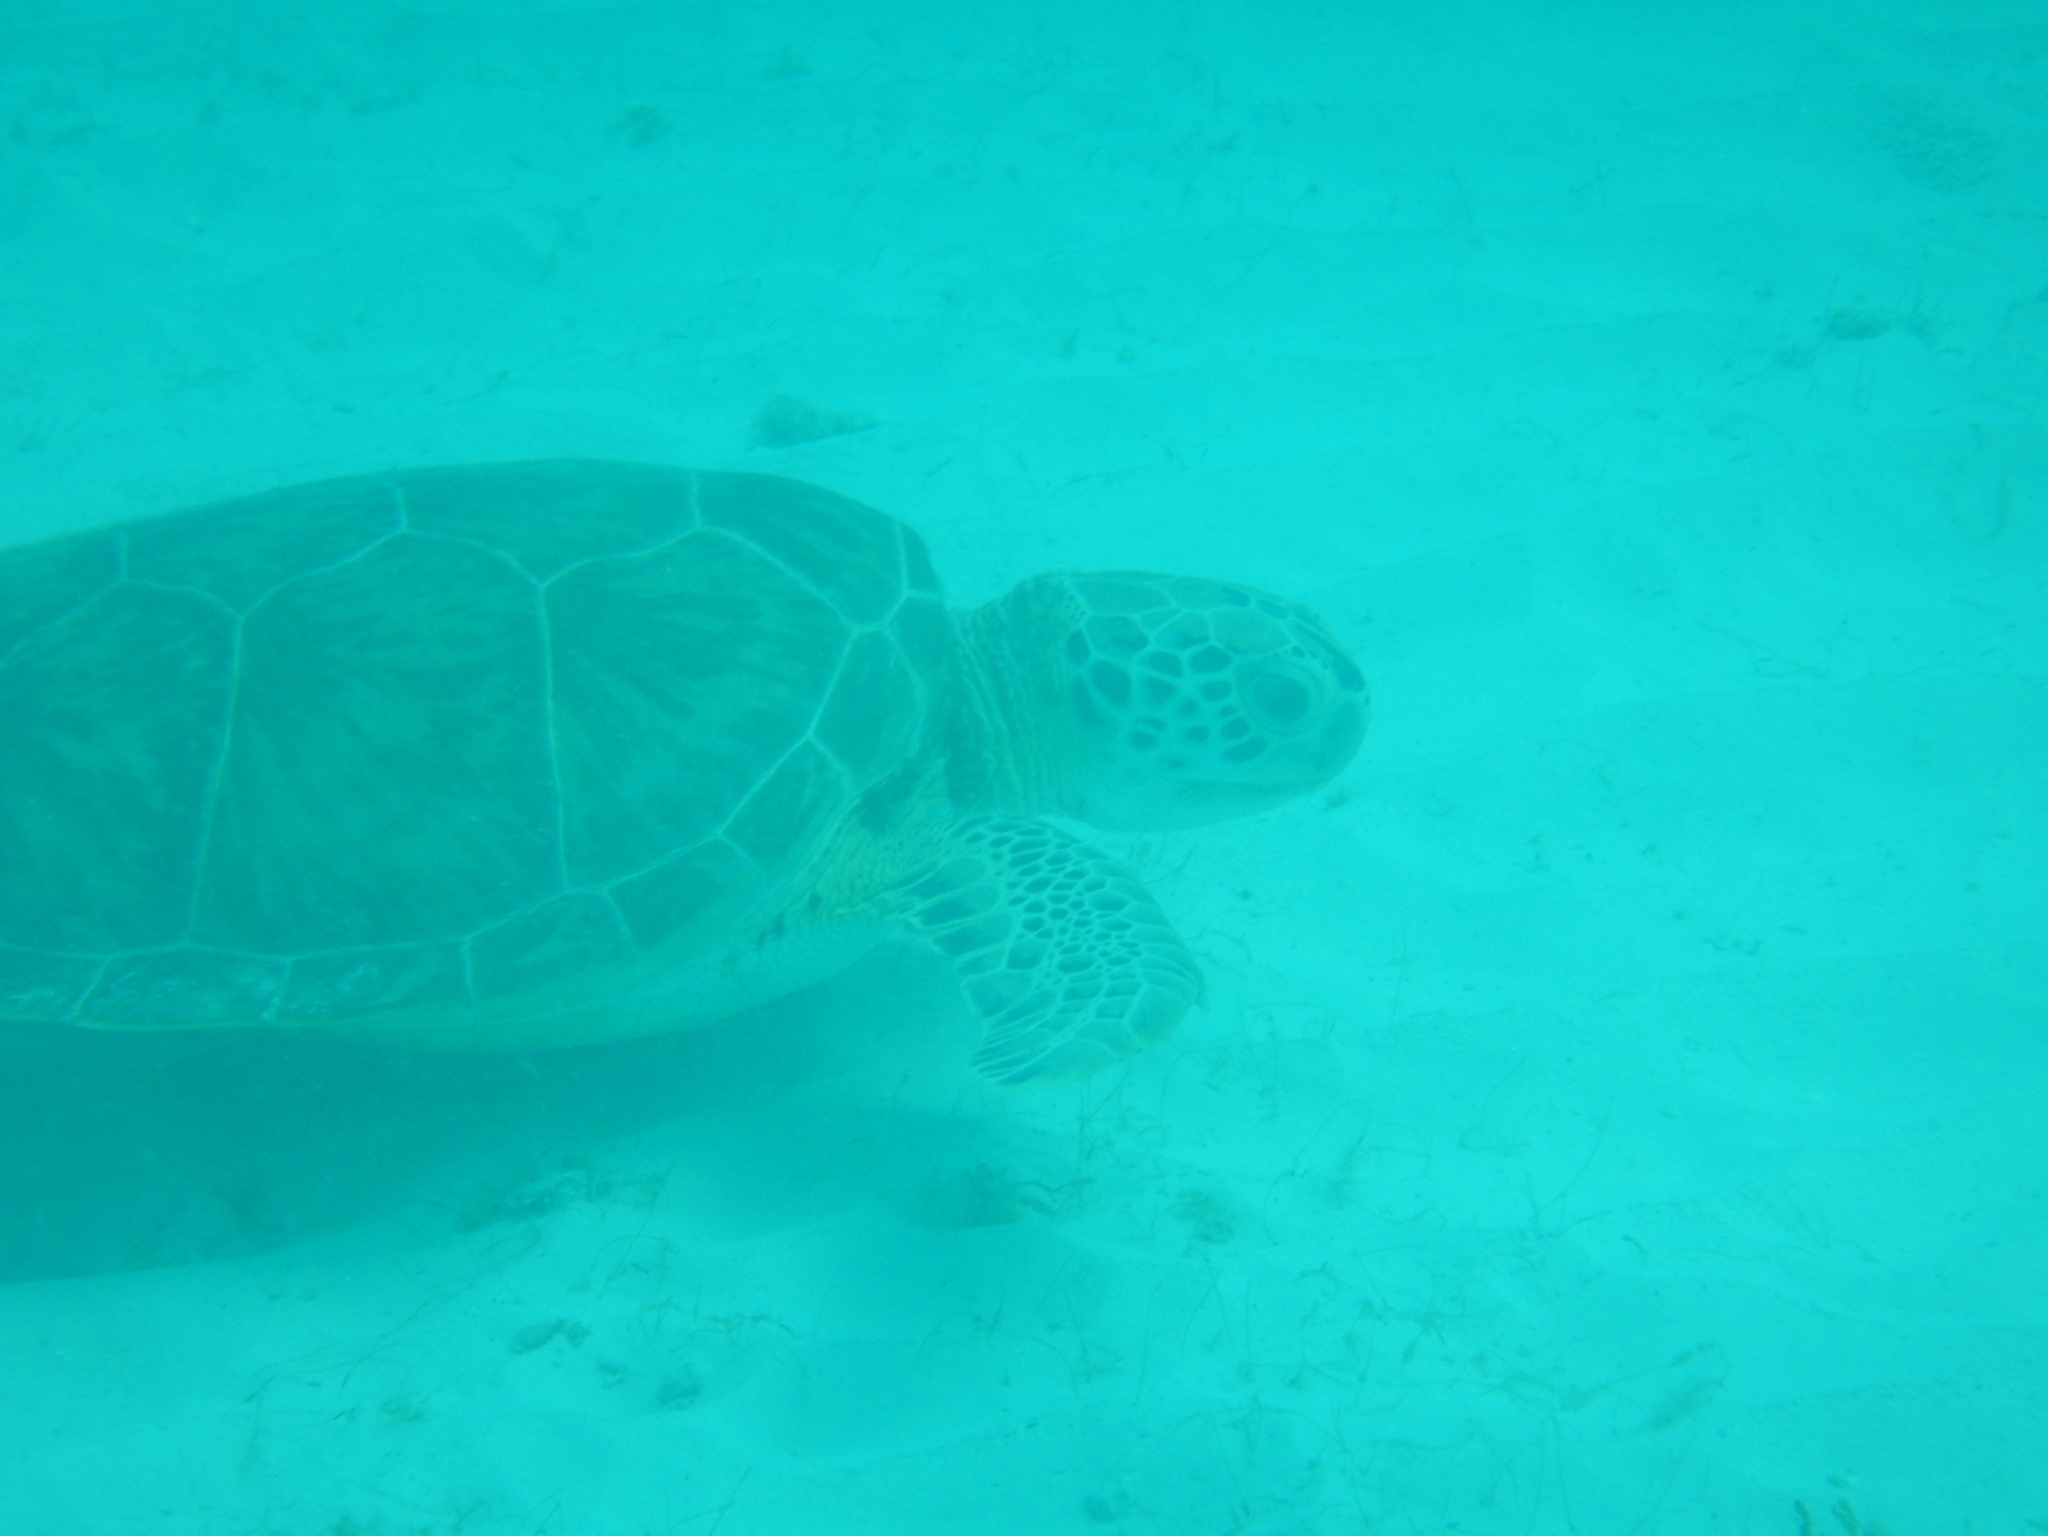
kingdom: Animalia
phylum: Chordata
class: Testudines
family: Cheloniidae
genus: Chelonia
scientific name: Chelonia mydas
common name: Green turtle
